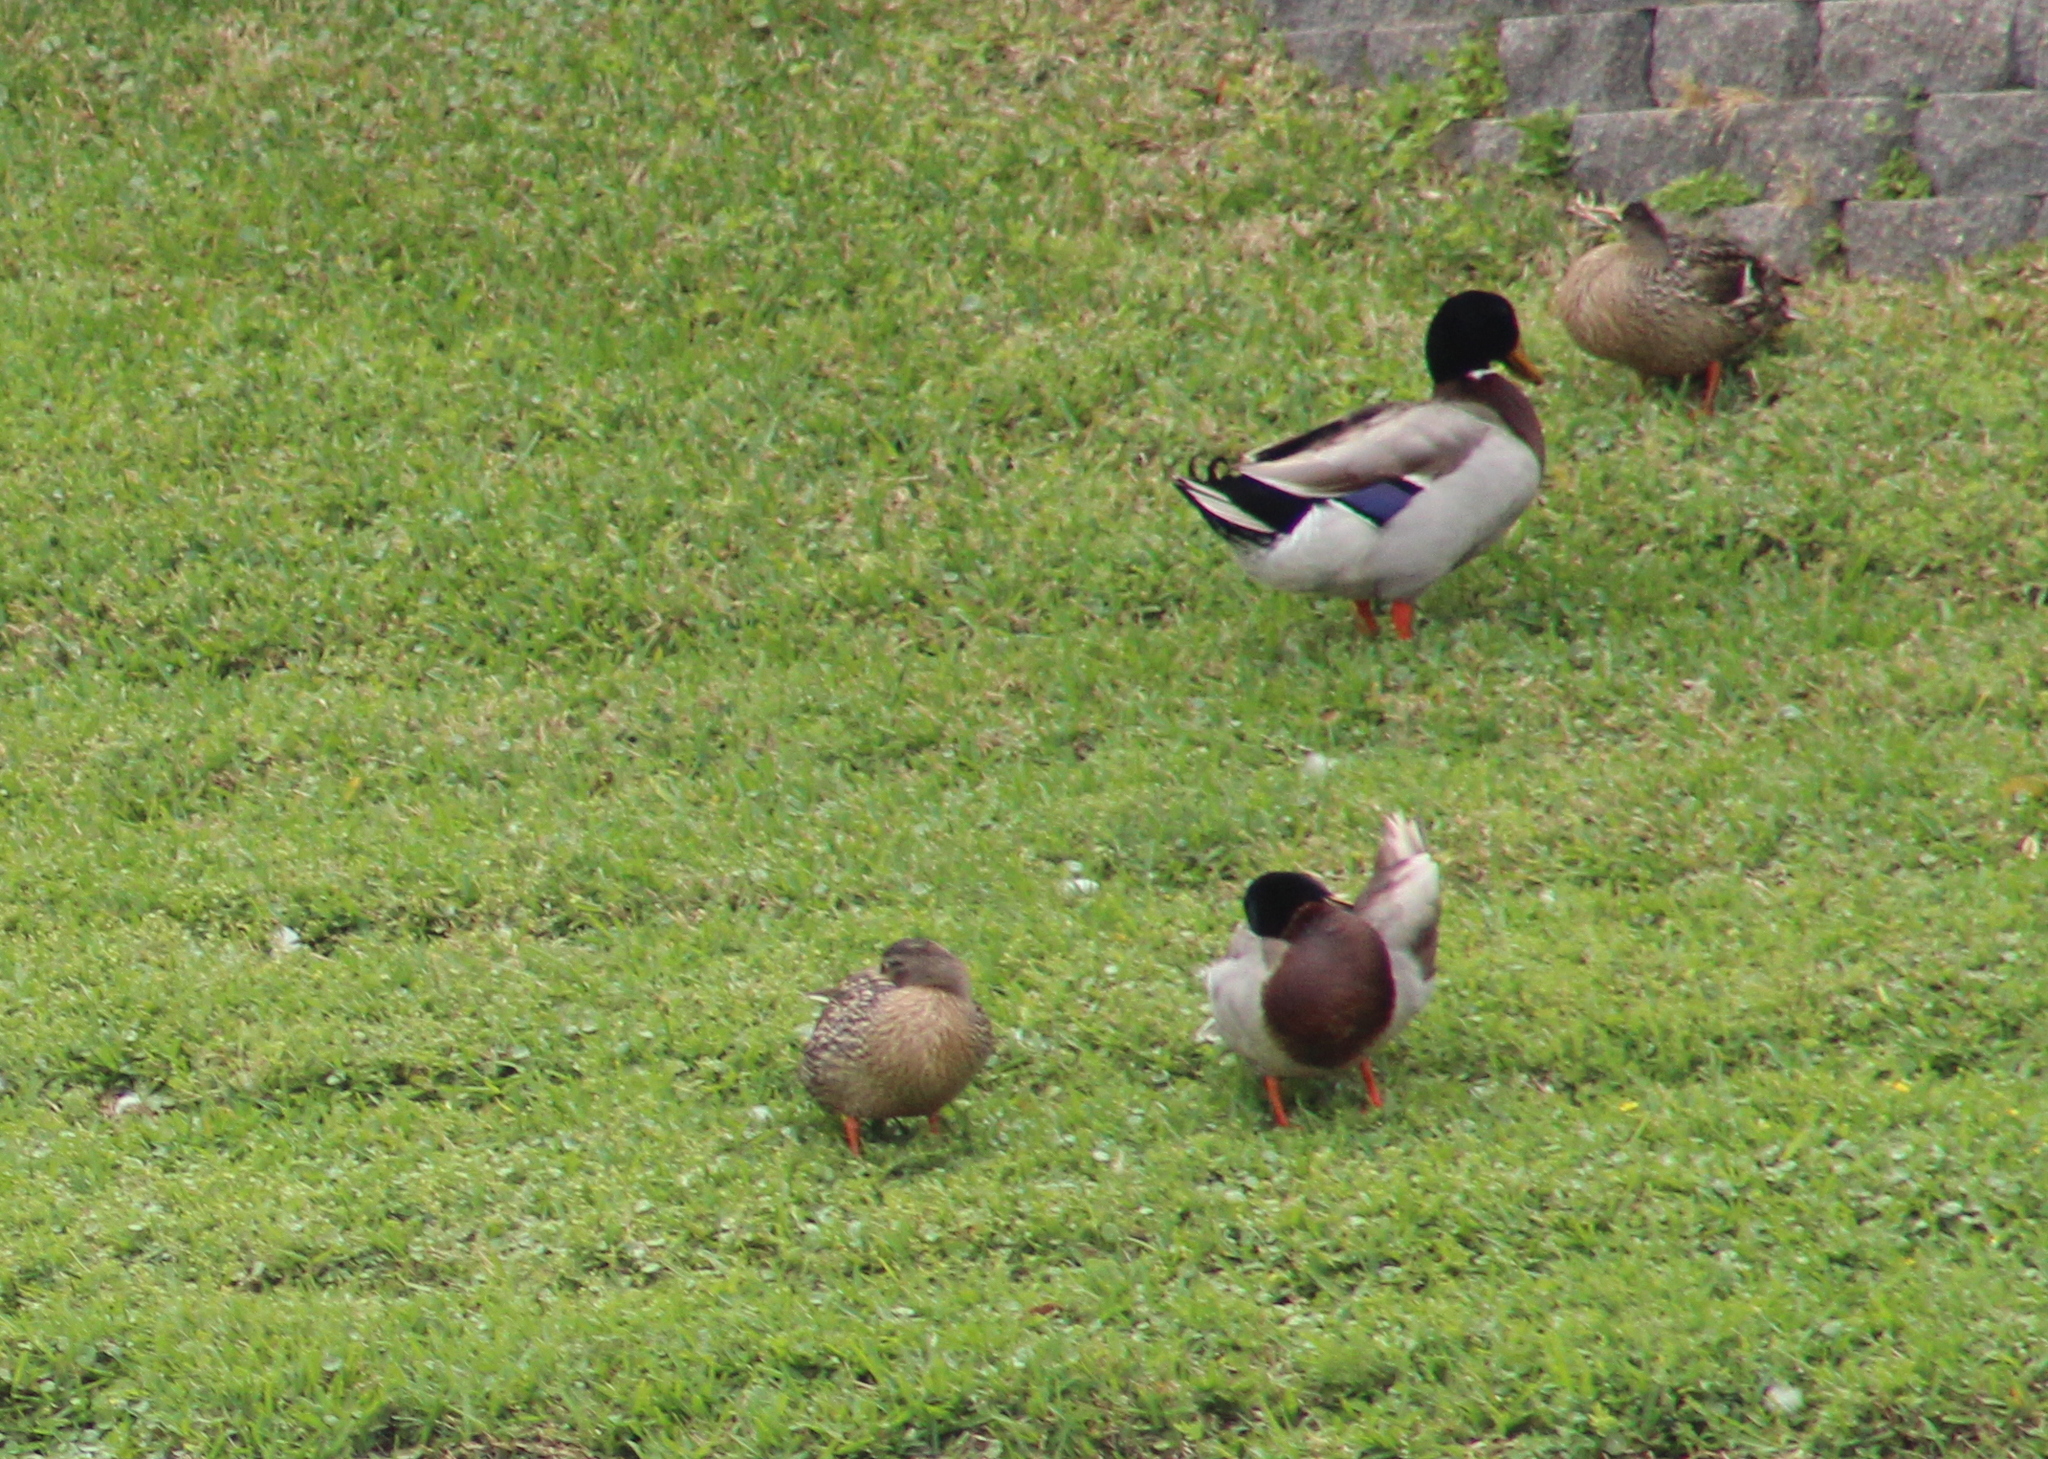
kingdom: Animalia
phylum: Chordata
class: Aves
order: Anseriformes
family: Anatidae
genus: Anas
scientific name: Anas platyrhynchos
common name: Mallard
